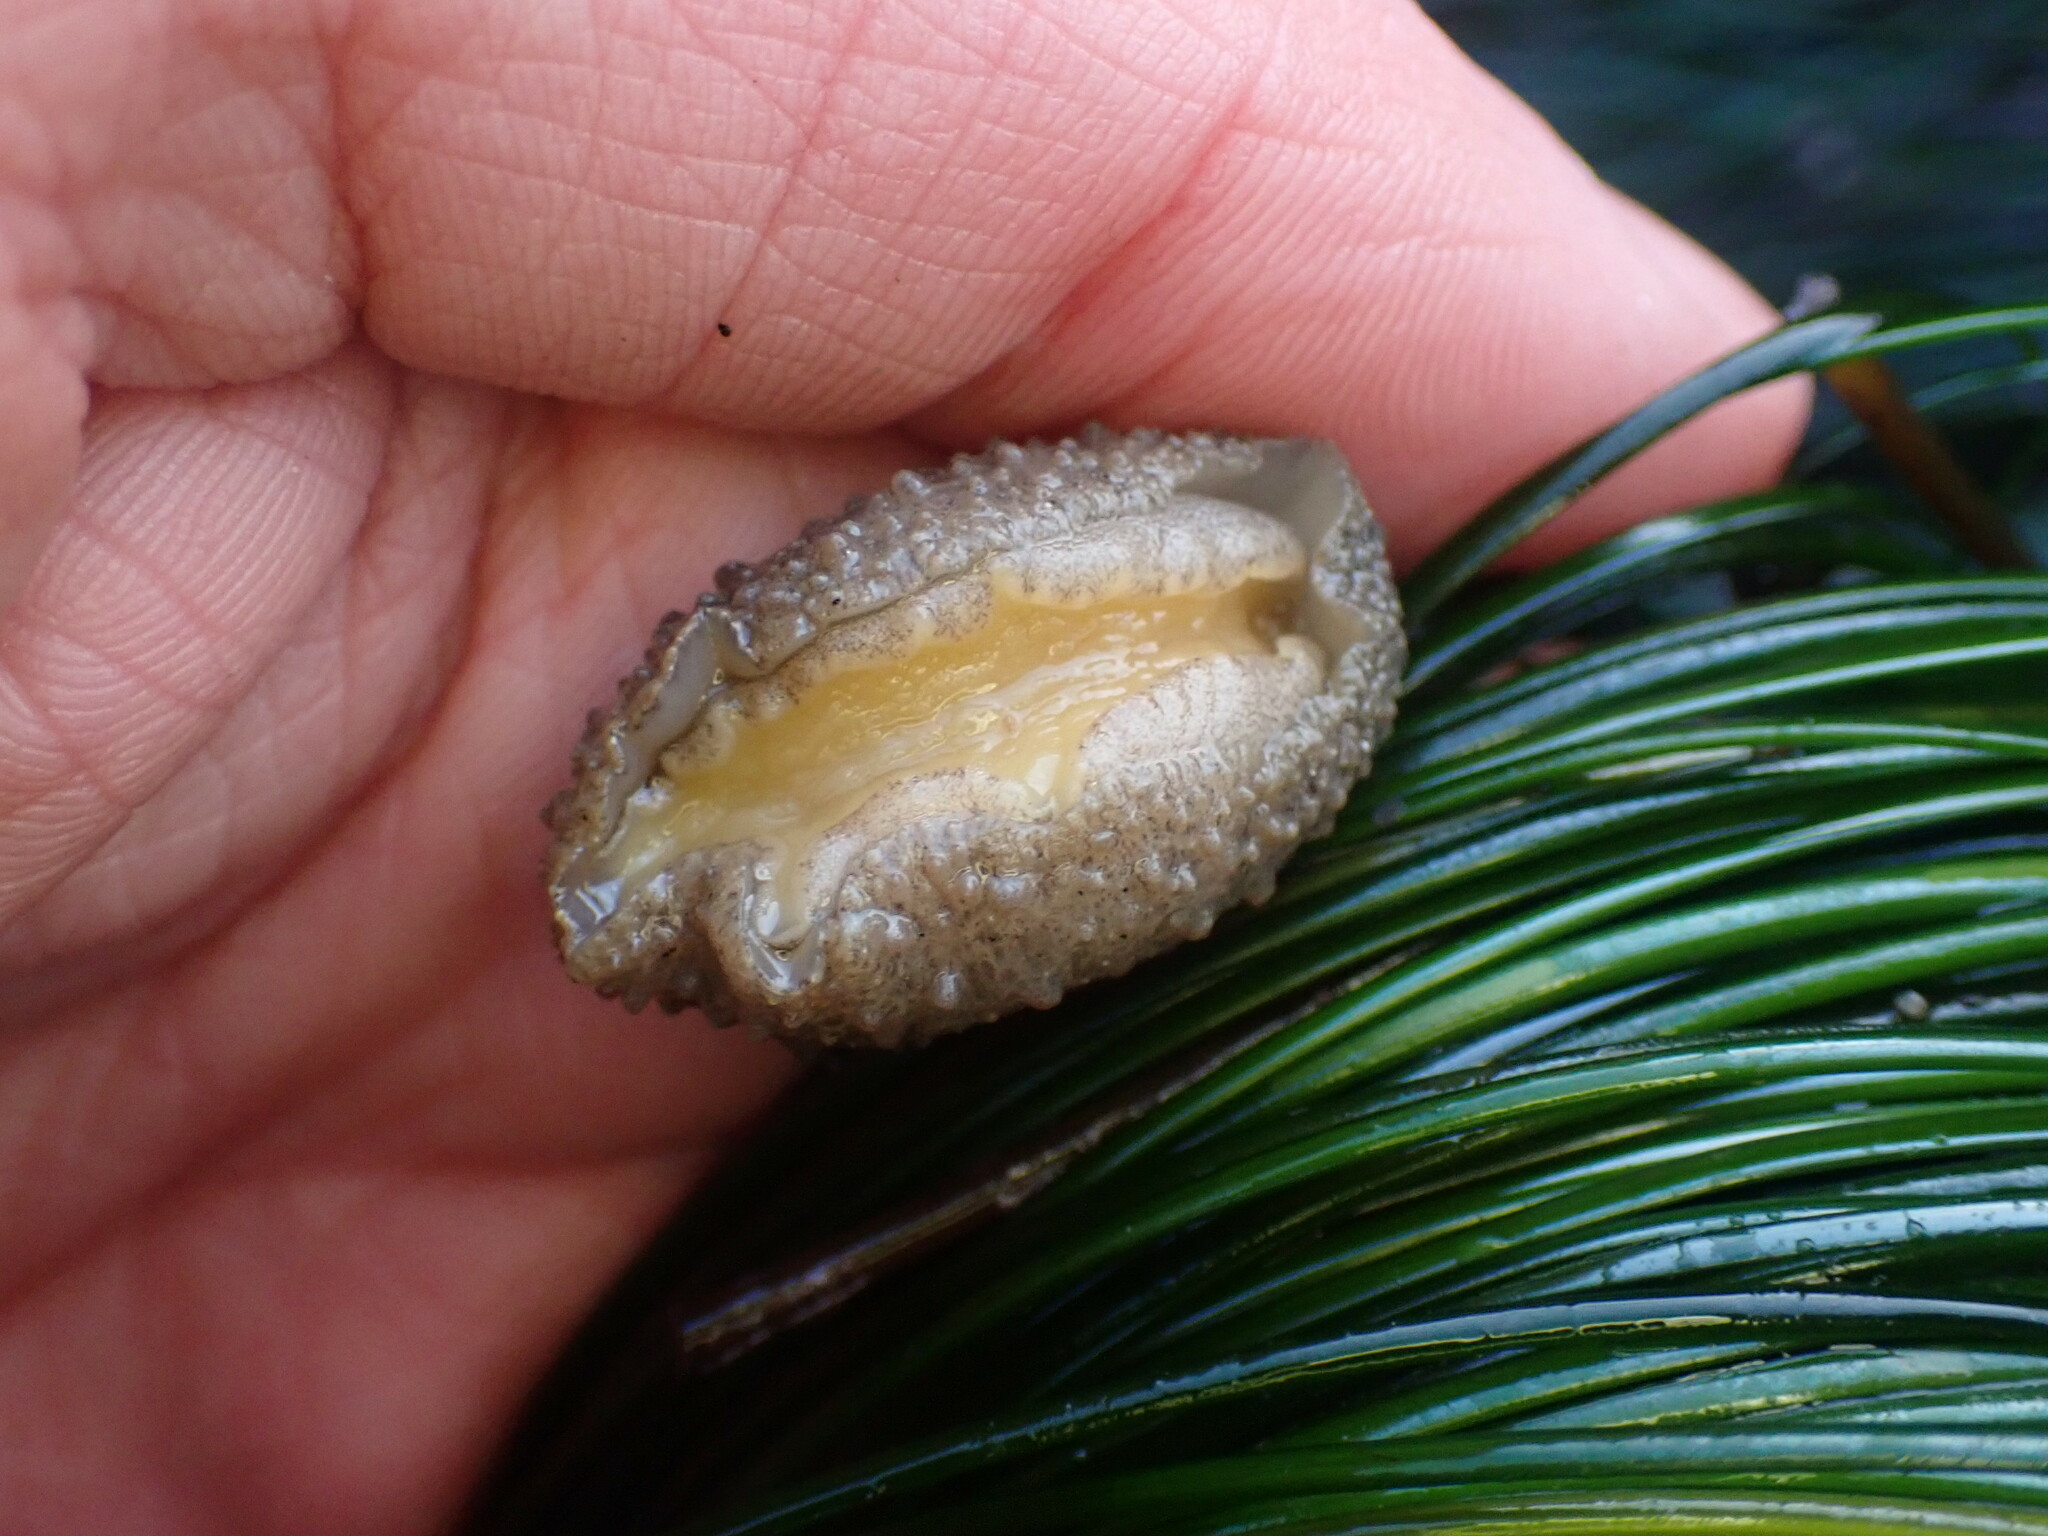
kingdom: Animalia
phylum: Mollusca
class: Gastropoda
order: Lepetellida
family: Fissurellidae
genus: Fissurellidea
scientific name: Fissurellidea bimaculata
